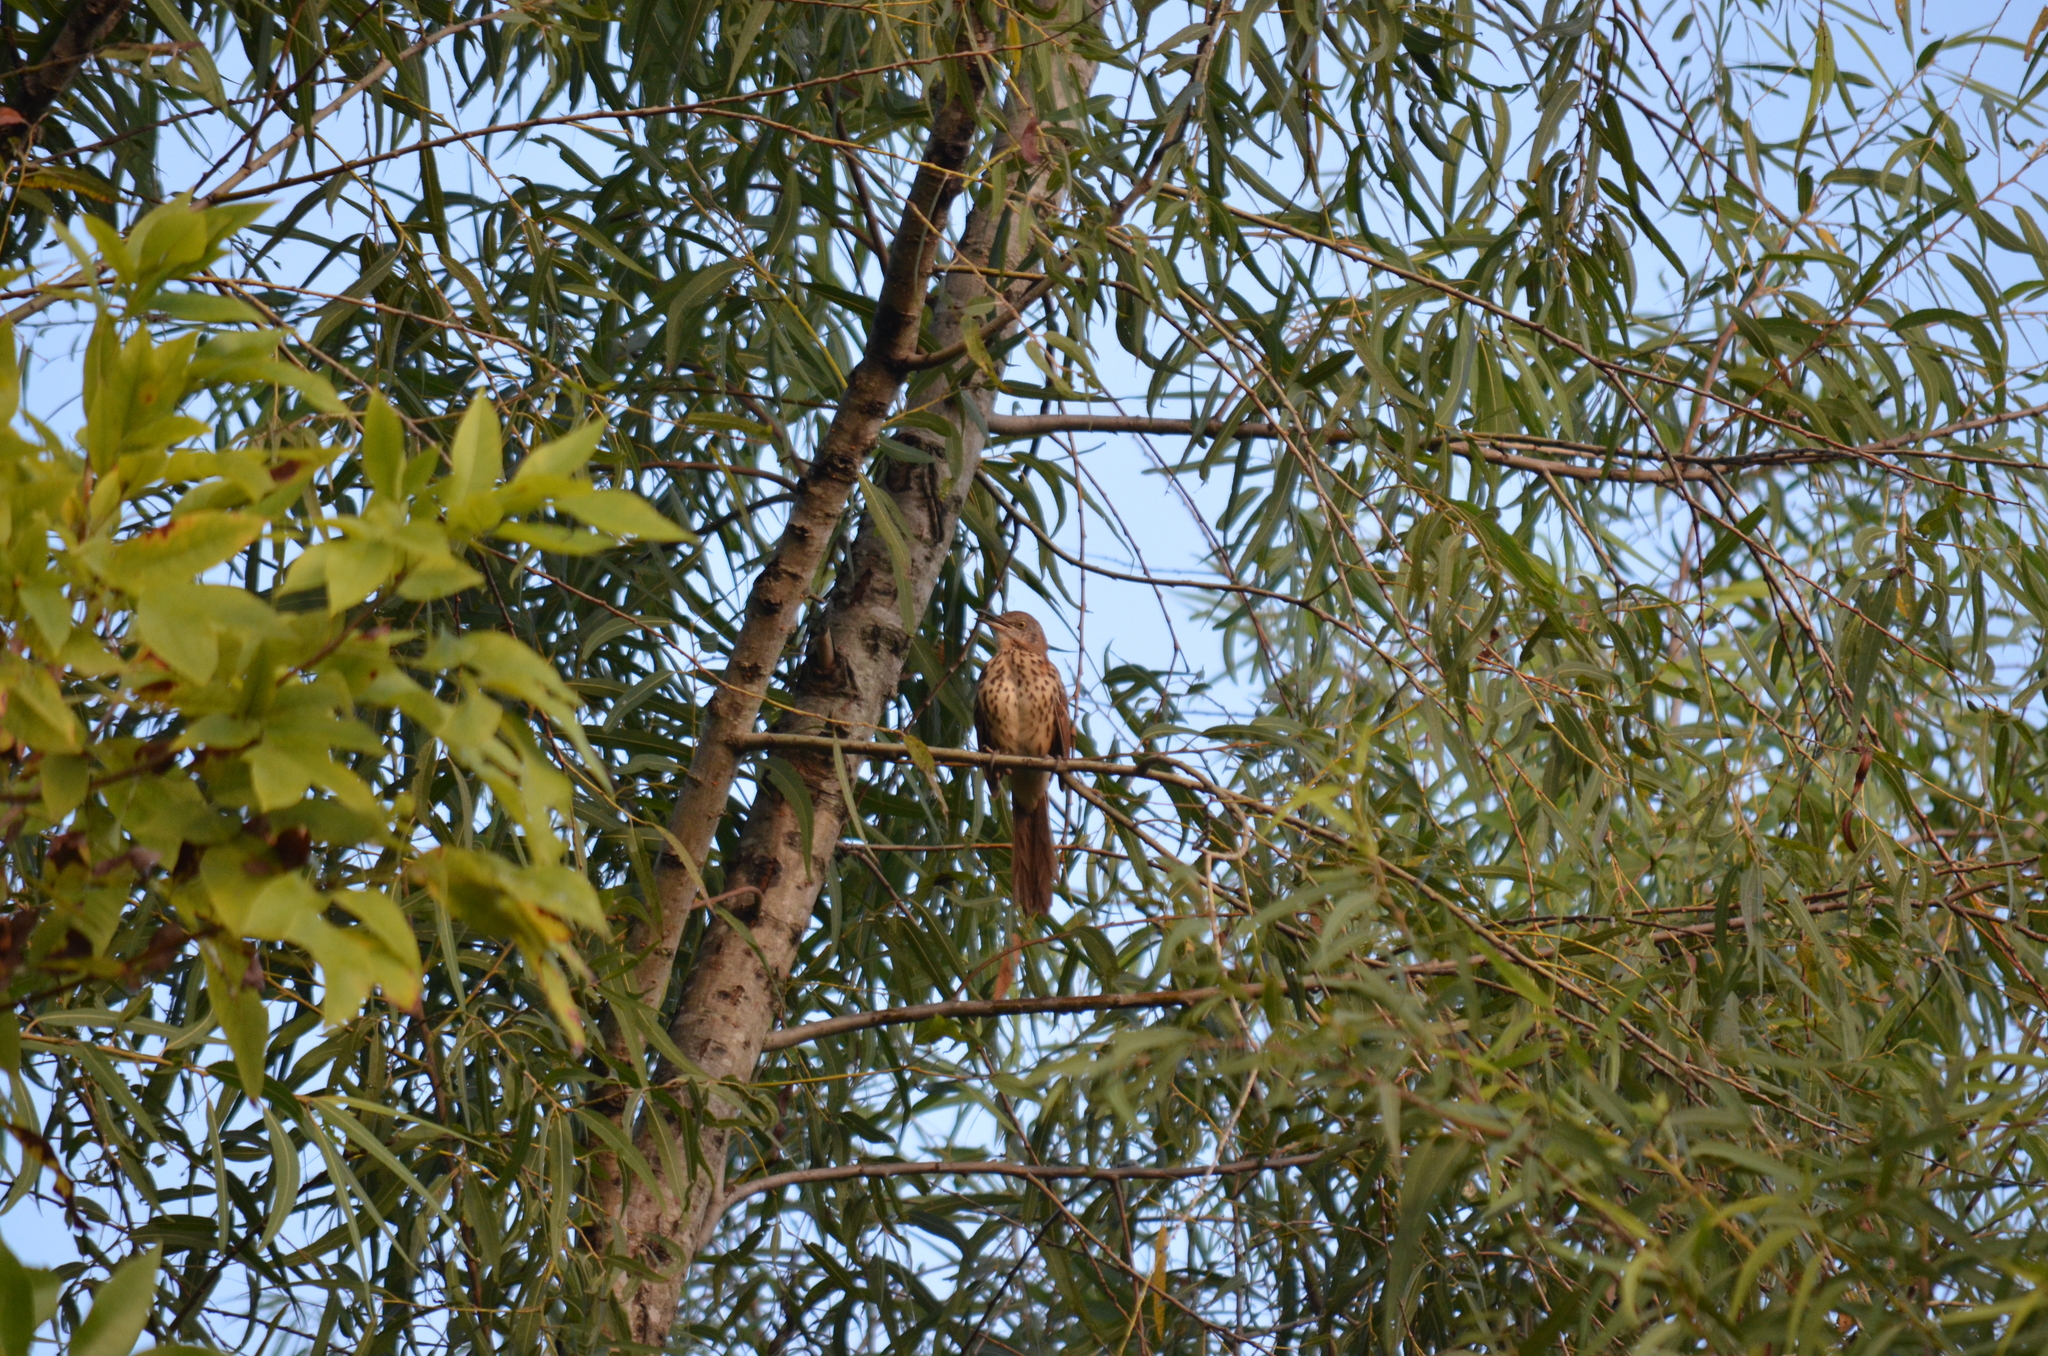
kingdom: Animalia
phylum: Chordata
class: Aves
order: Passeriformes
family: Mimidae
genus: Toxostoma
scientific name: Toxostoma rufum
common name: Brown thrasher
